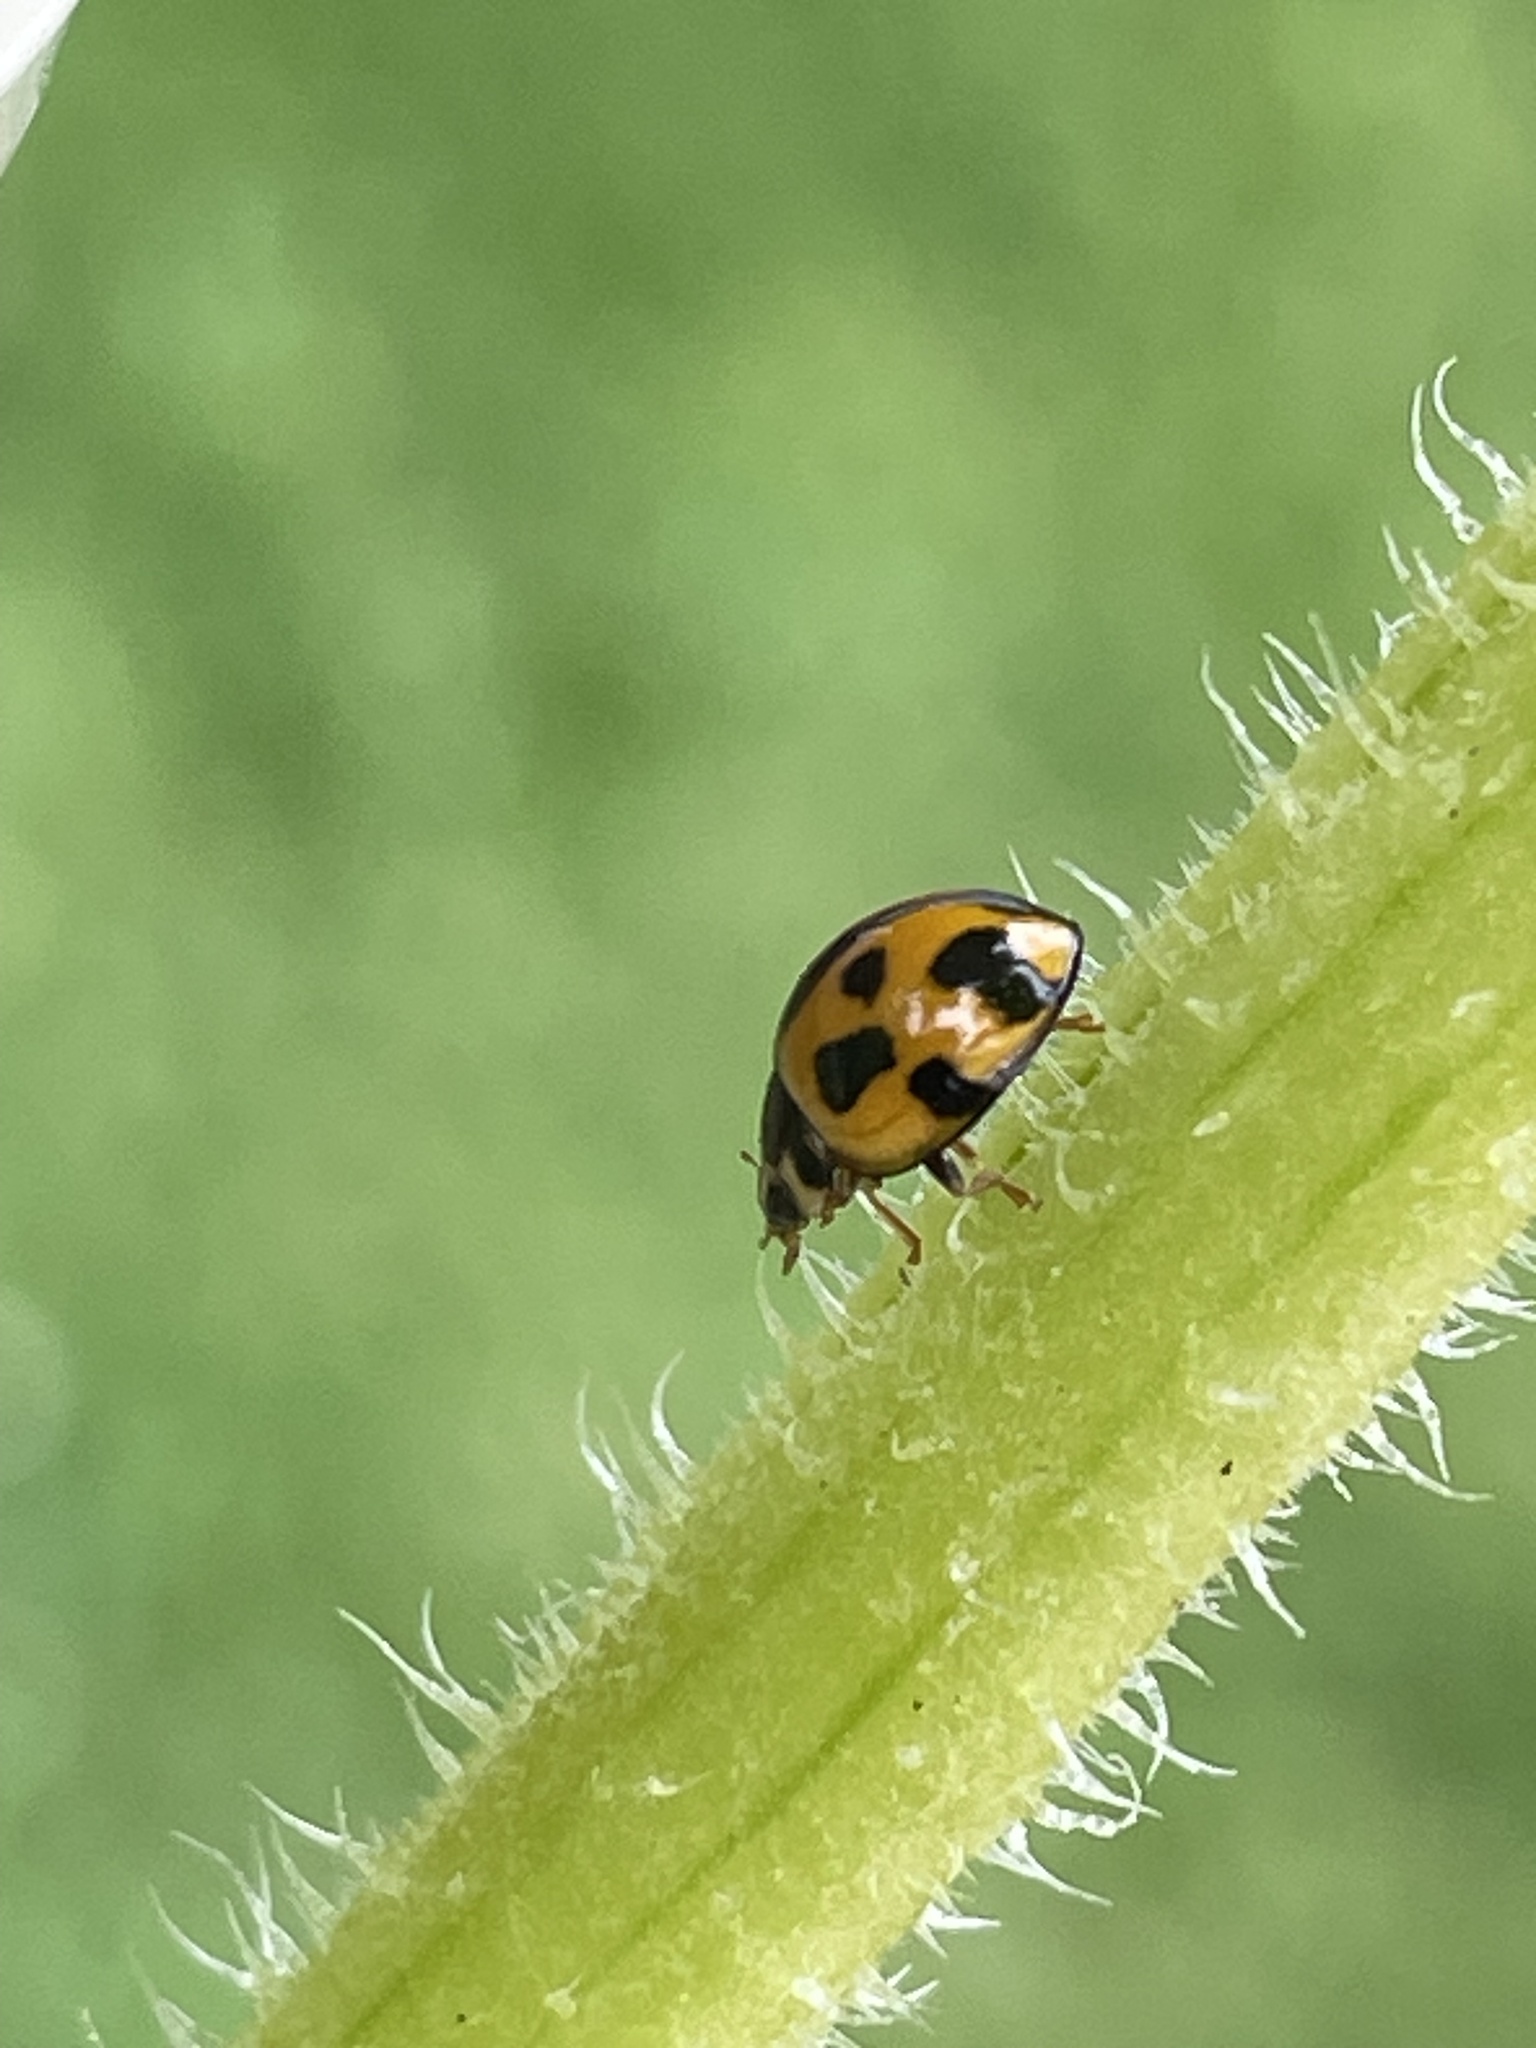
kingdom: Animalia
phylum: Arthropoda
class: Insecta
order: Coleoptera
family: Coccinellidae
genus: Coelophora
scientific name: Coelophora inaequalis
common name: Common australian lady beetle
